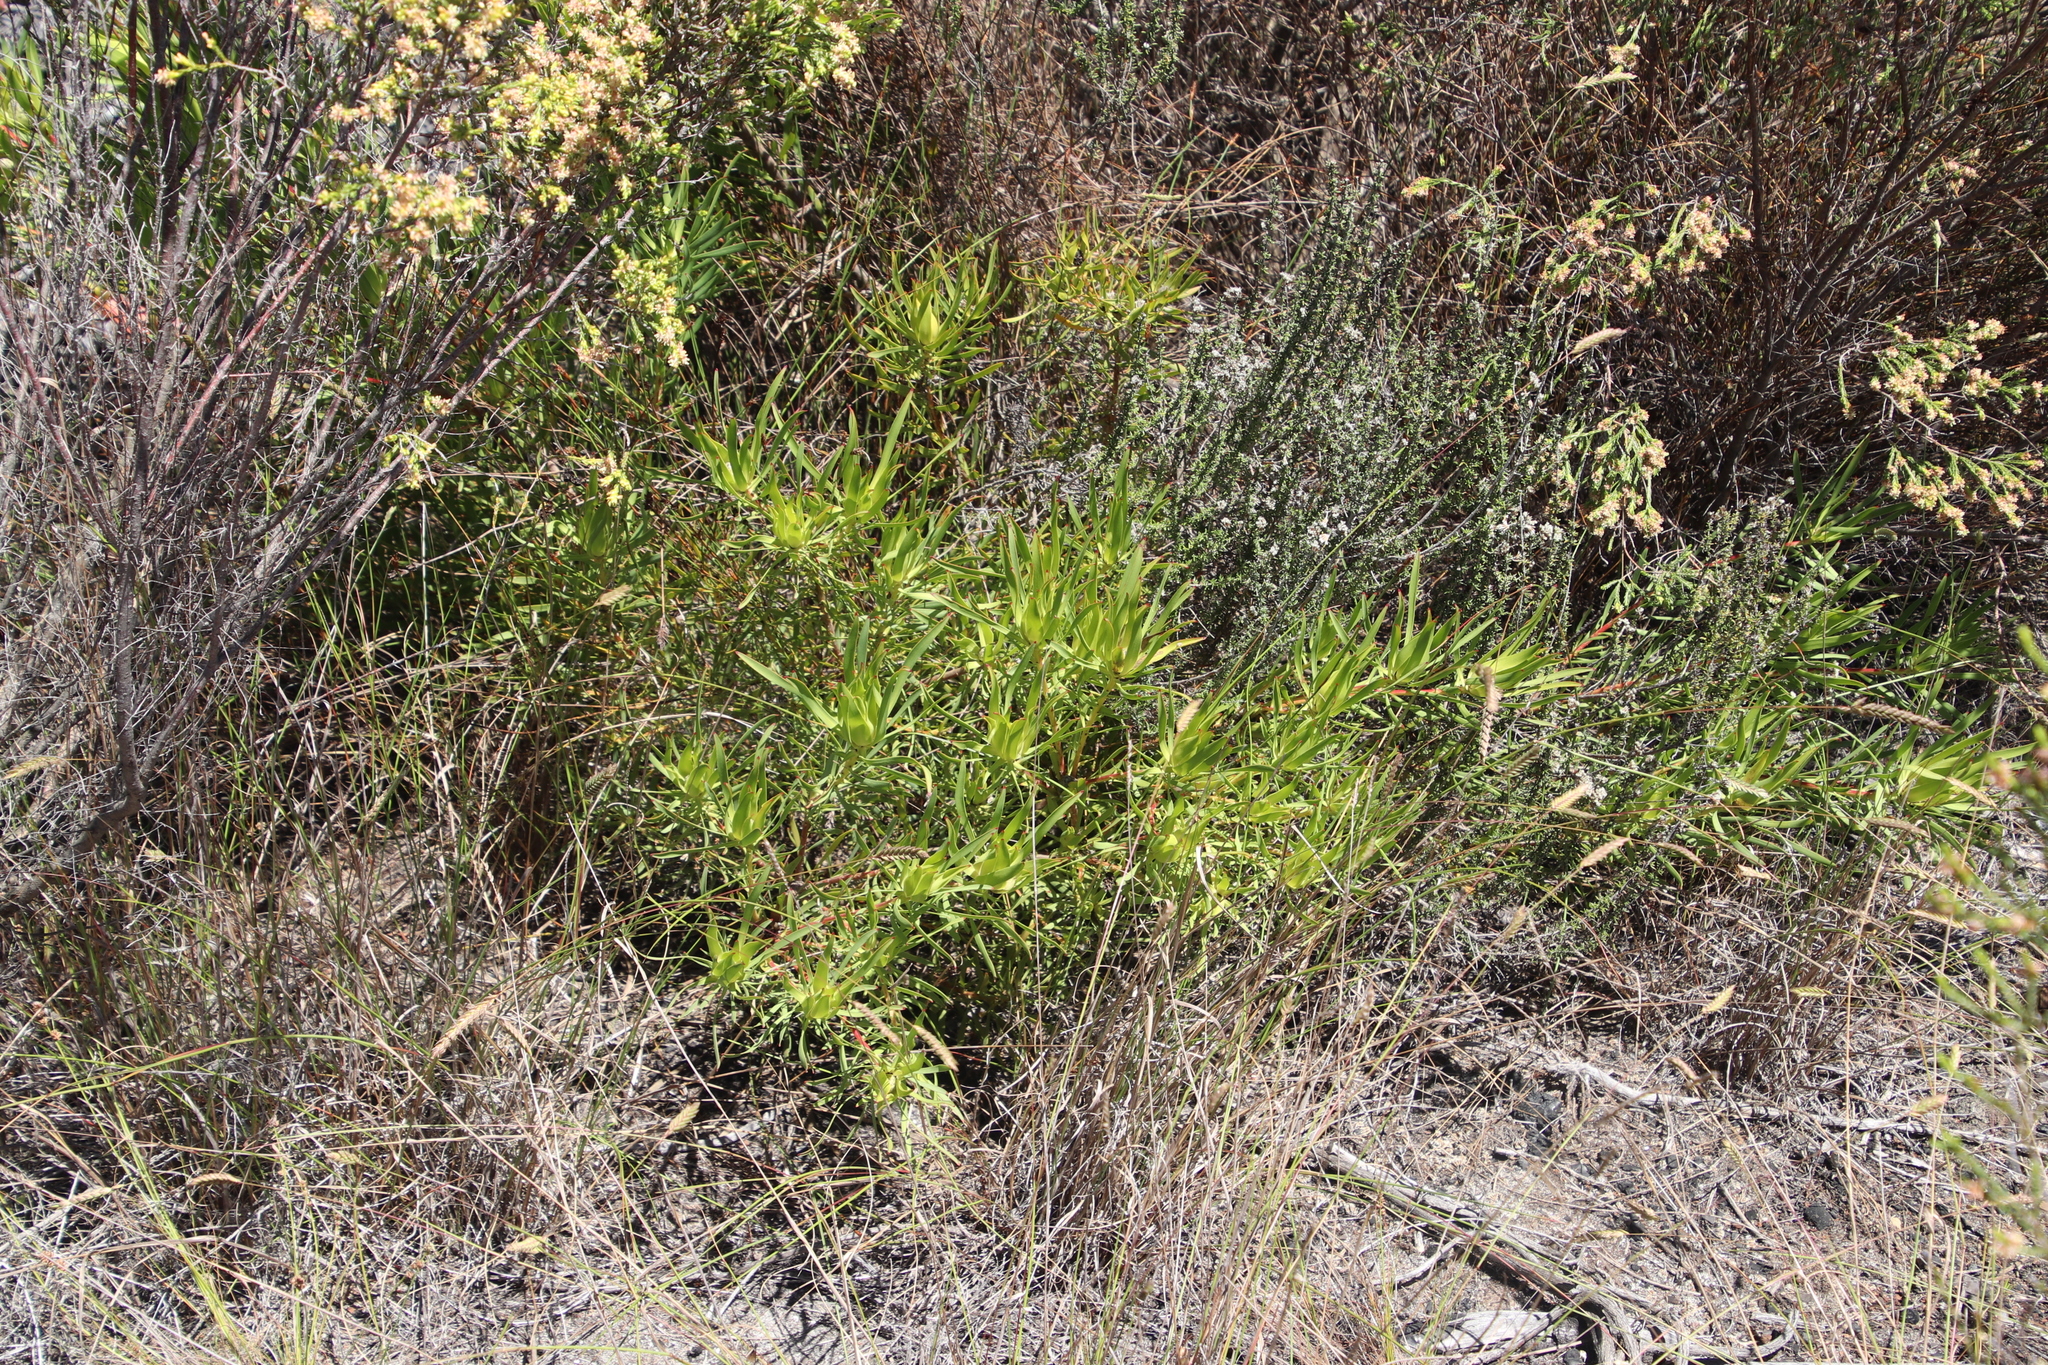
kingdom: Plantae
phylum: Tracheophyta
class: Magnoliopsida
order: Proteales
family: Proteaceae
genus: Leucadendron
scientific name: Leucadendron salignum
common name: Common sunshine conebush
